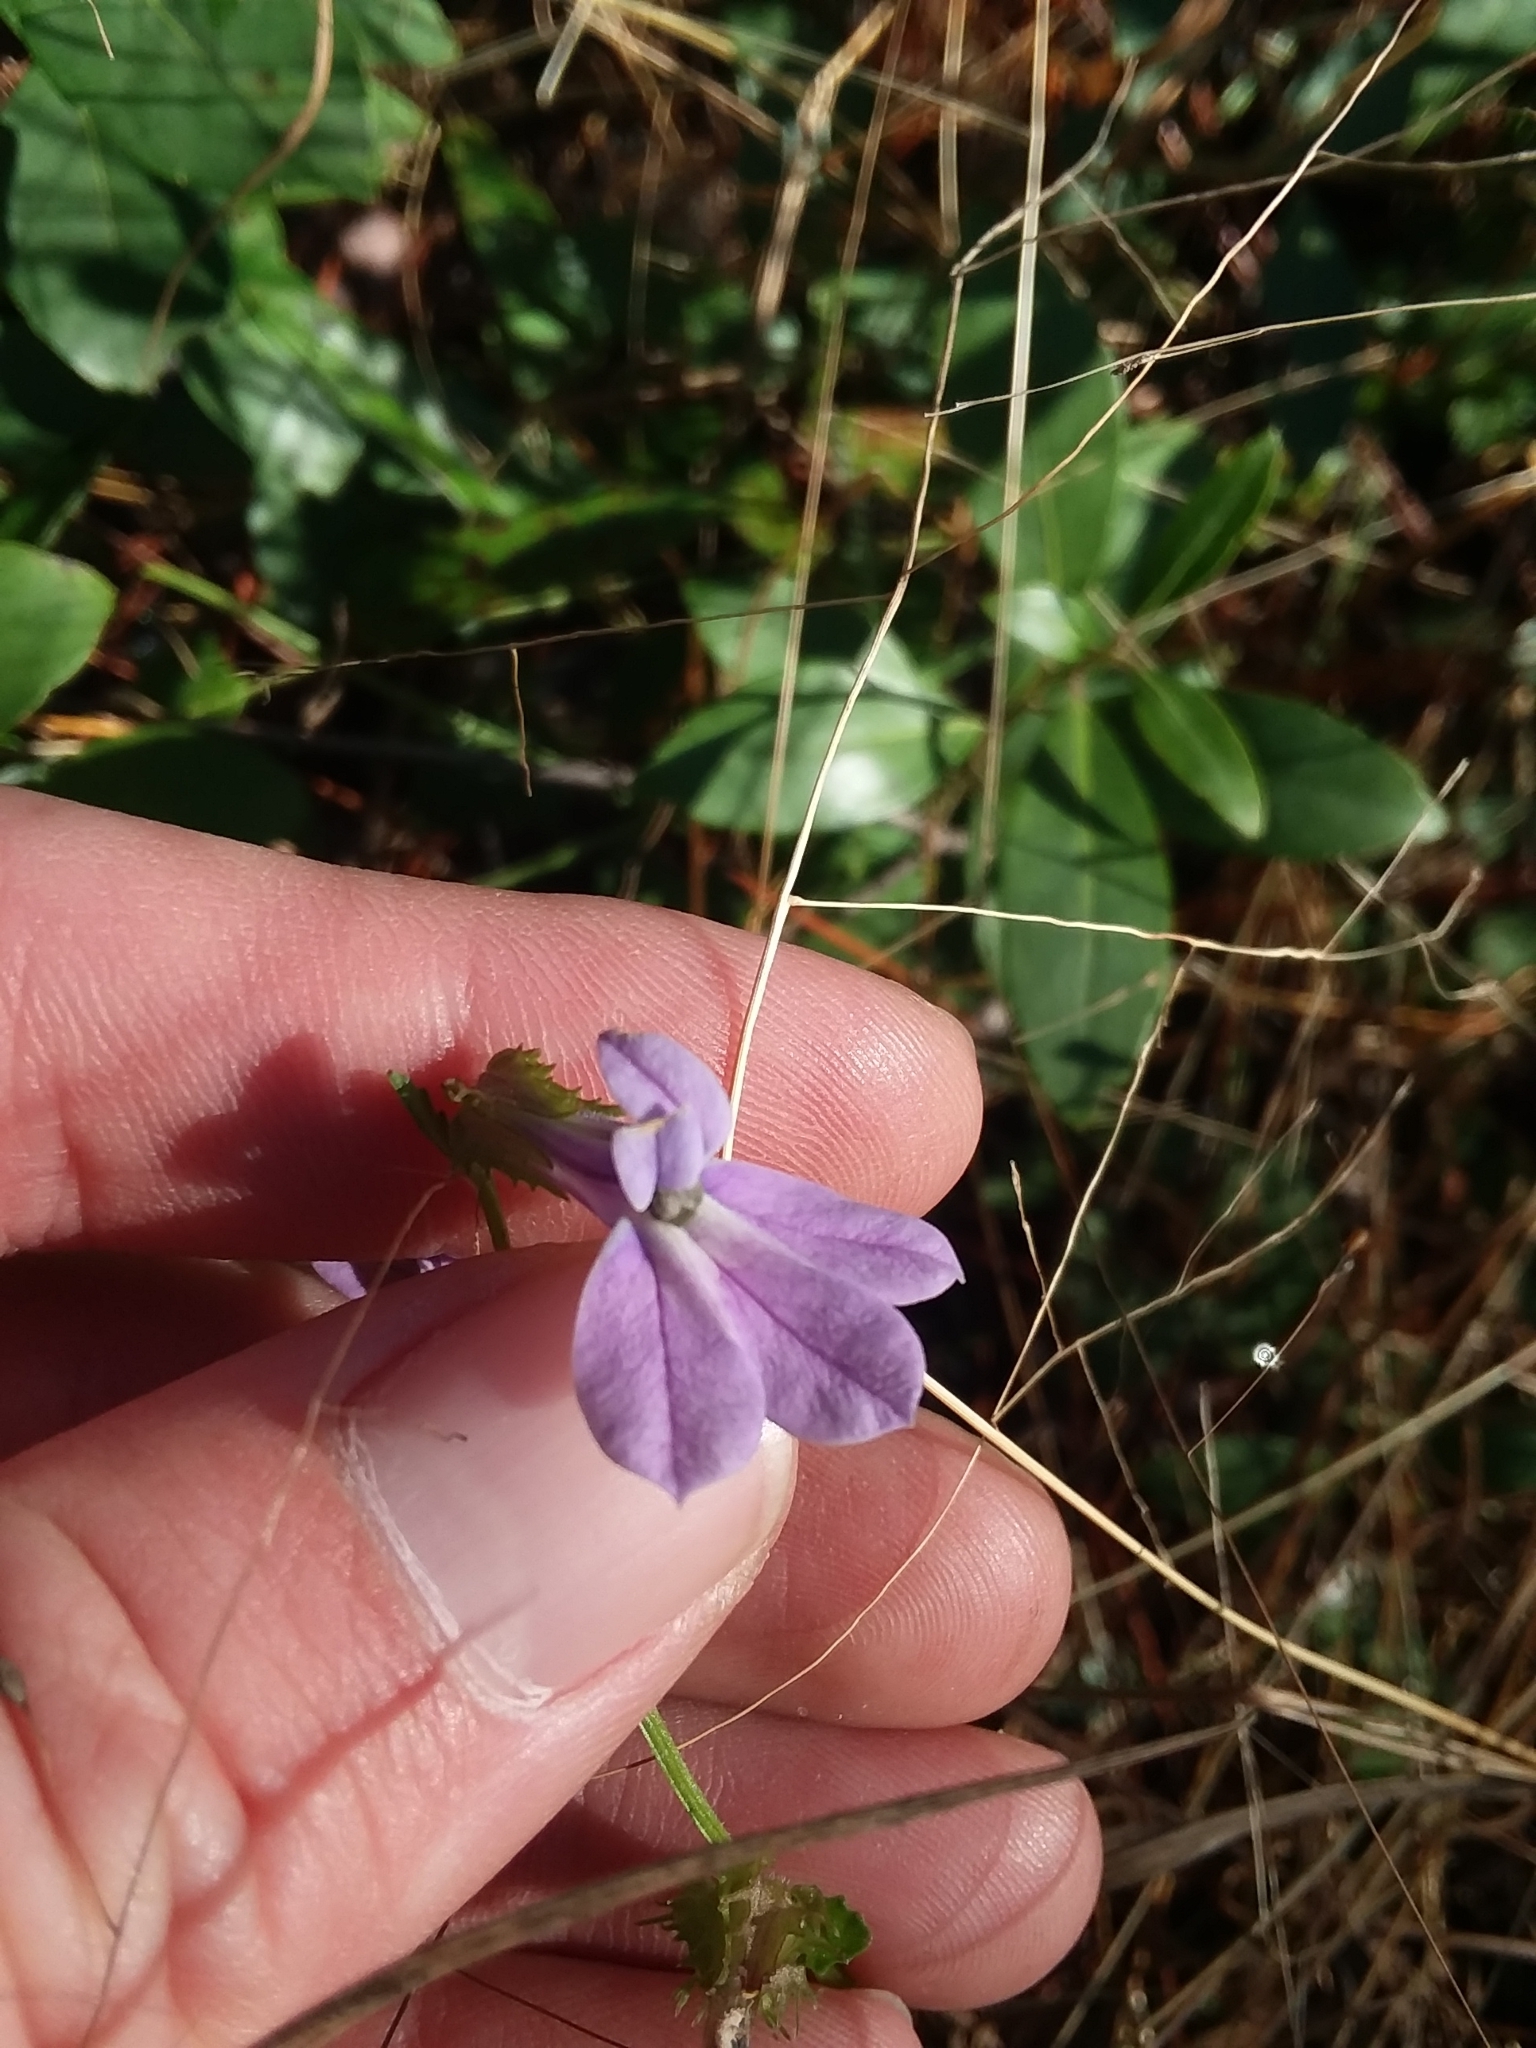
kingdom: Plantae
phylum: Tracheophyta
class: Magnoliopsida
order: Asterales
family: Campanulaceae
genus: Lobelia
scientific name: Lobelia brevifolia
